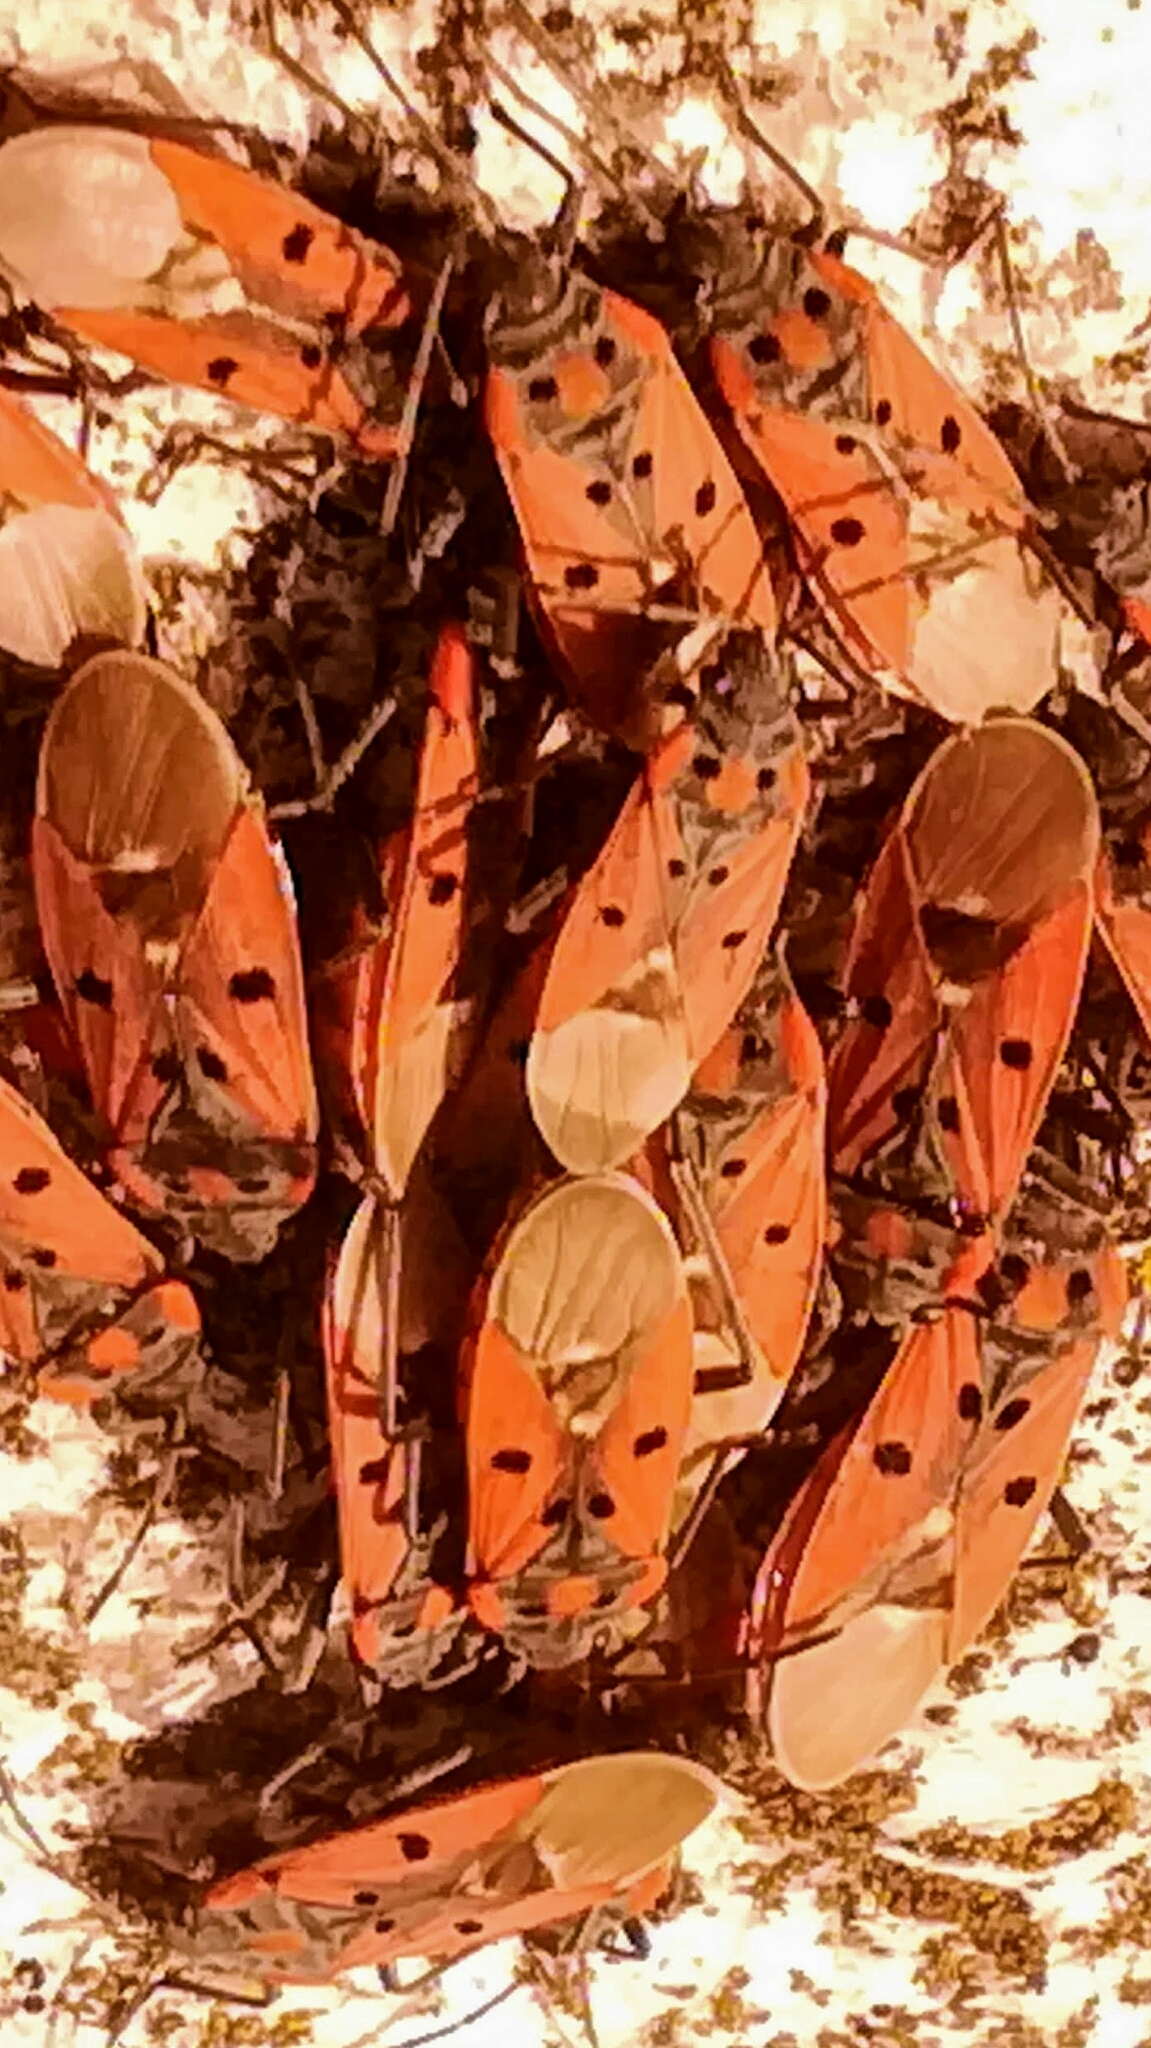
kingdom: Animalia
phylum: Arthropoda
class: Insecta
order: Hemiptera
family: Lygaeidae
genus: Lygaeus
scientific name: Lygaeus creticus
